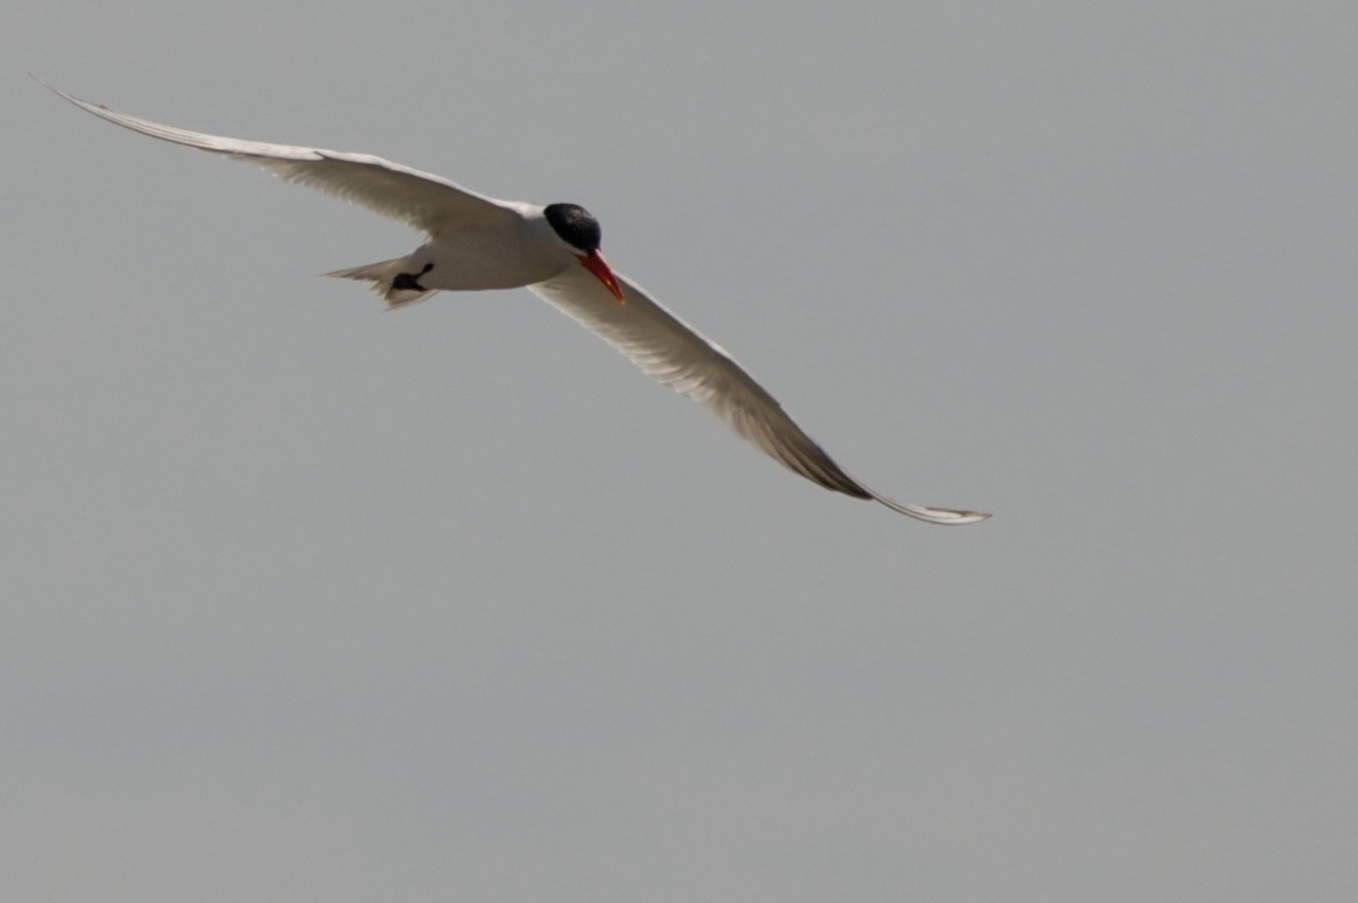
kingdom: Animalia
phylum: Chordata
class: Aves
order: Charadriiformes
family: Laridae
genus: Hydroprogne
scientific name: Hydroprogne caspia
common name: Caspian tern
